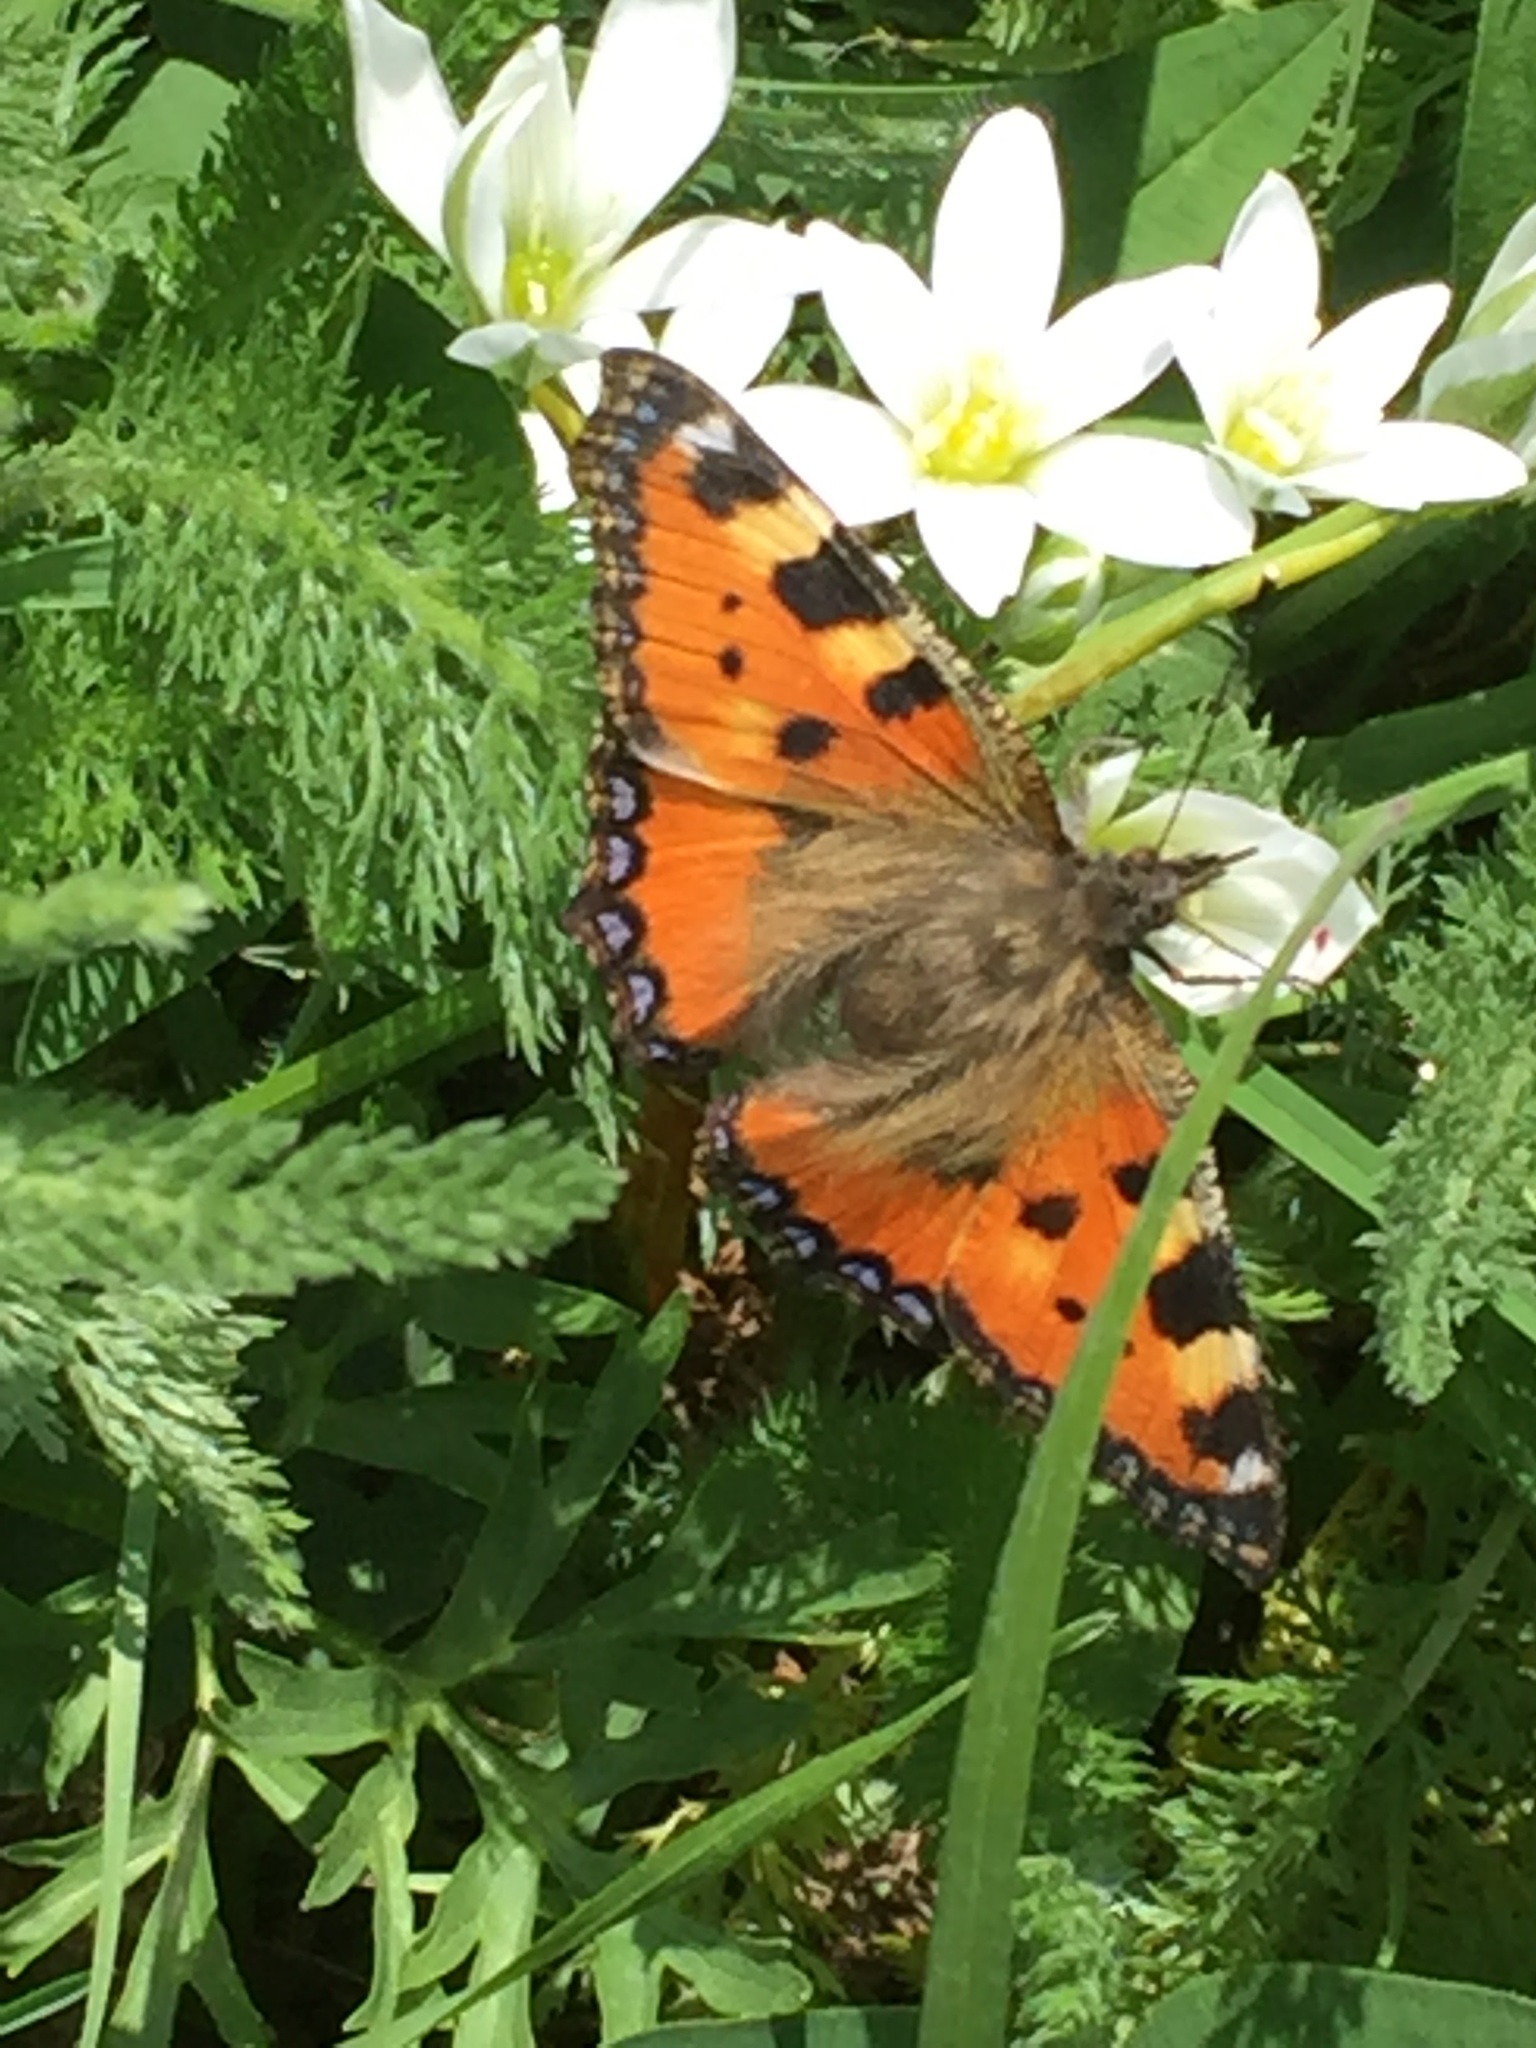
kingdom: Animalia
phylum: Arthropoda
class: Insecta
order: Lepidoptera
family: Nymphalidae
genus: Aglais
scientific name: Aglais urticae
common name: Small tortoiseshell
